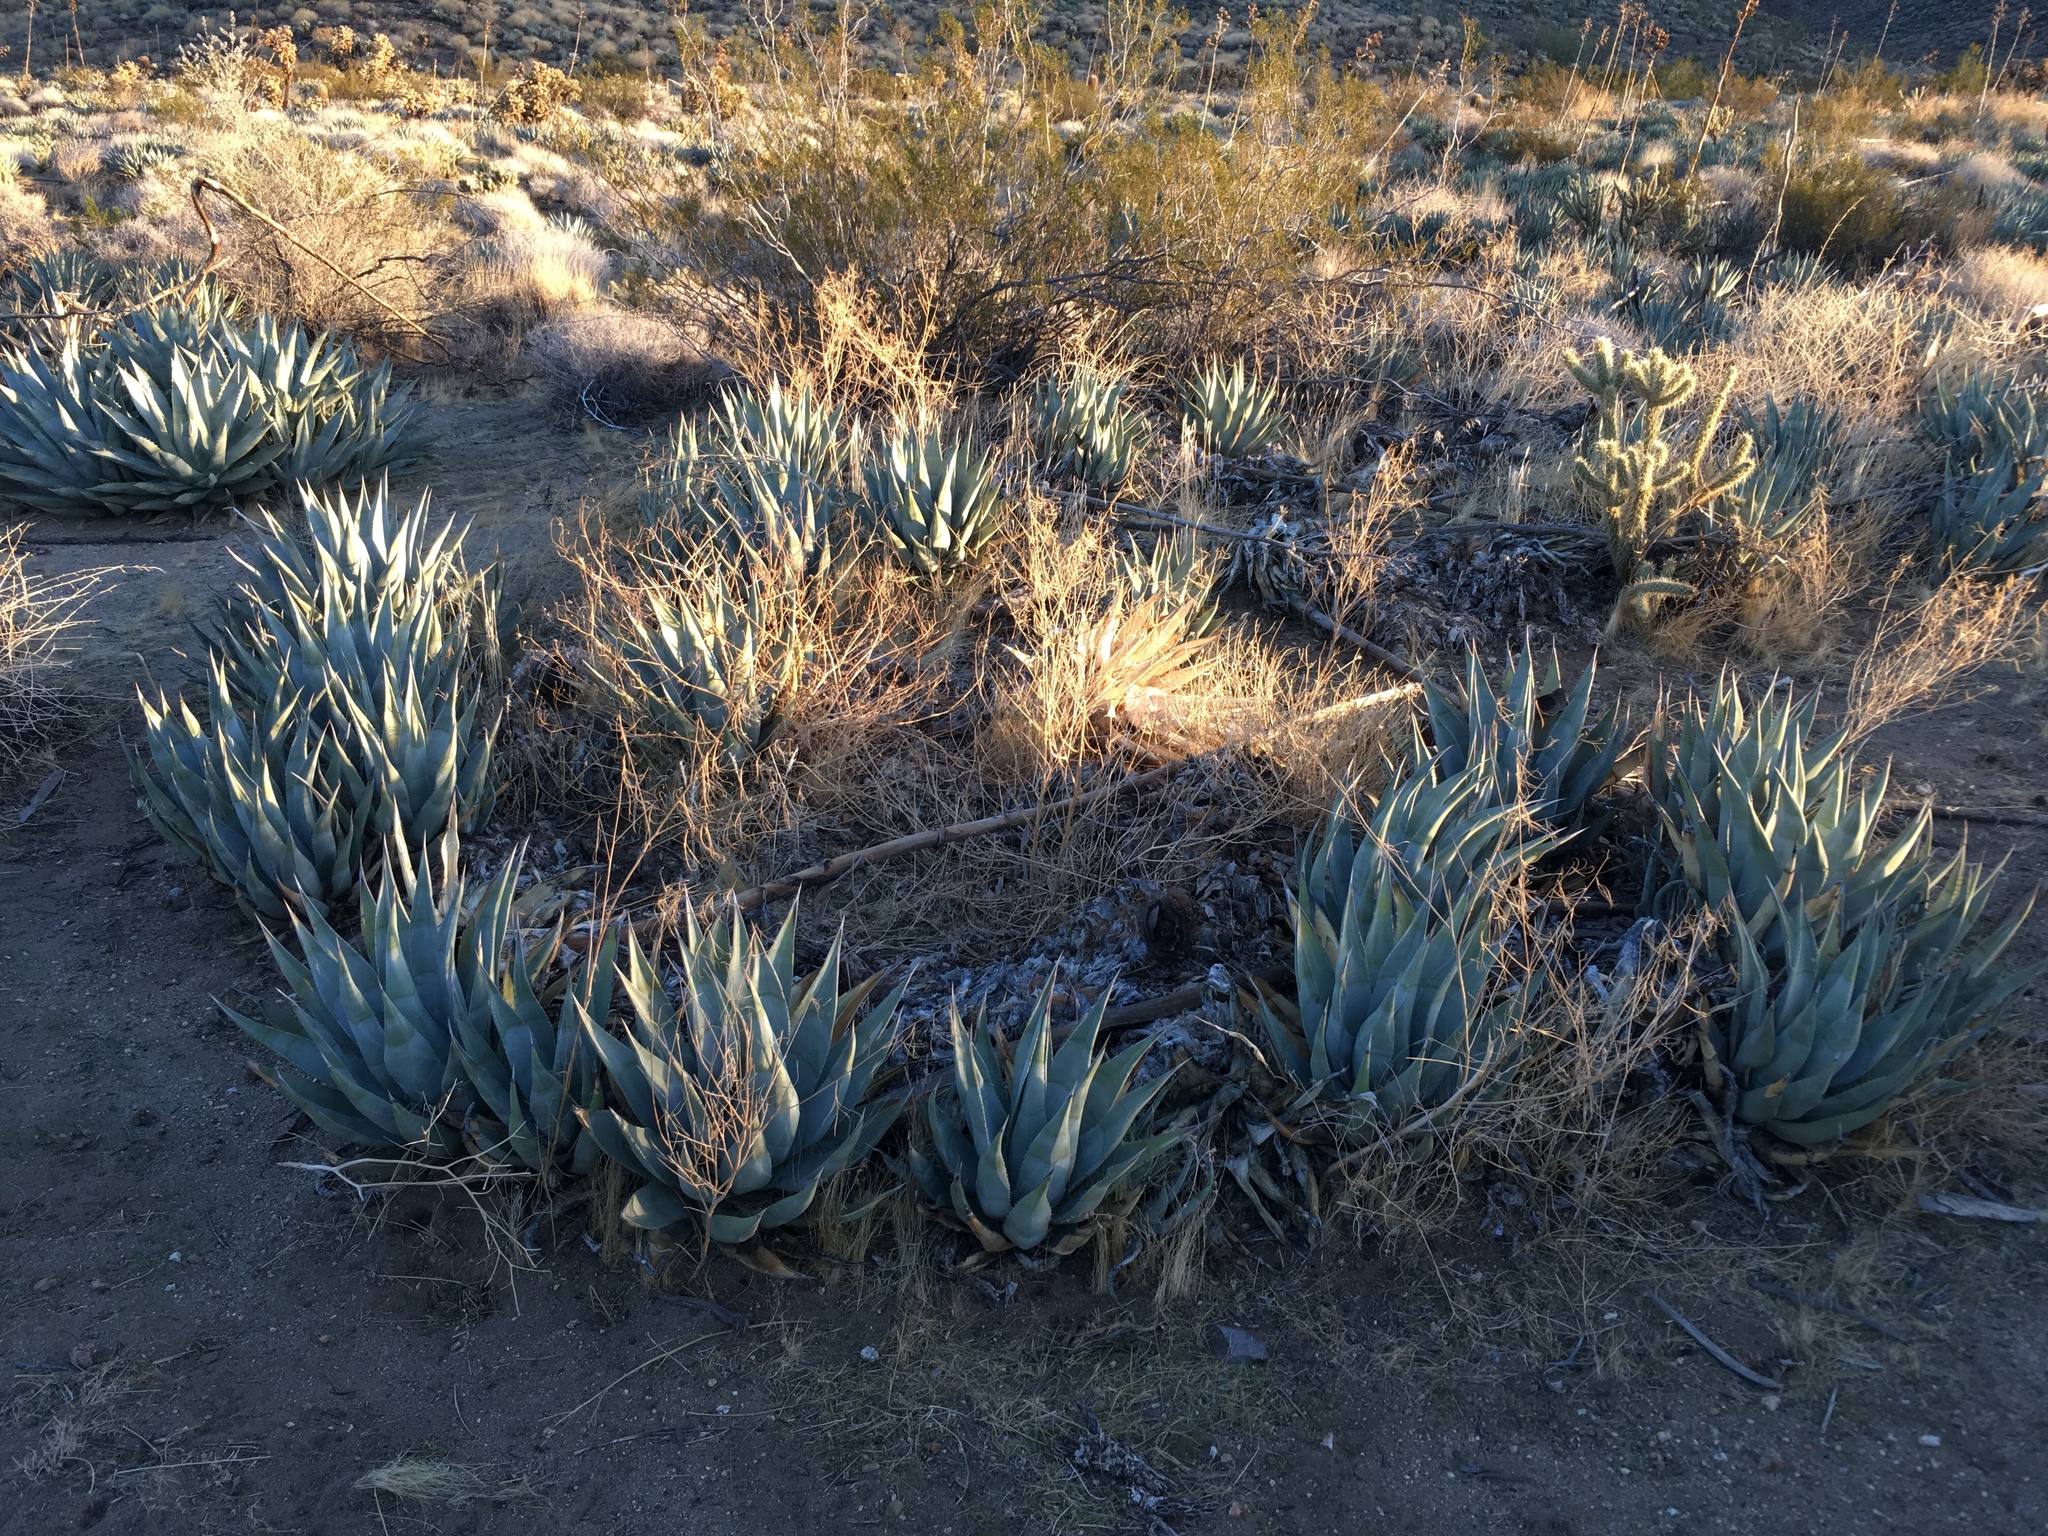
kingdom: Plantae
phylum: Tracheophyta
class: Liliopsida
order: Asparagales
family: Asparagaceae
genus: Agave
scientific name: Agave deserti
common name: Desert agave
